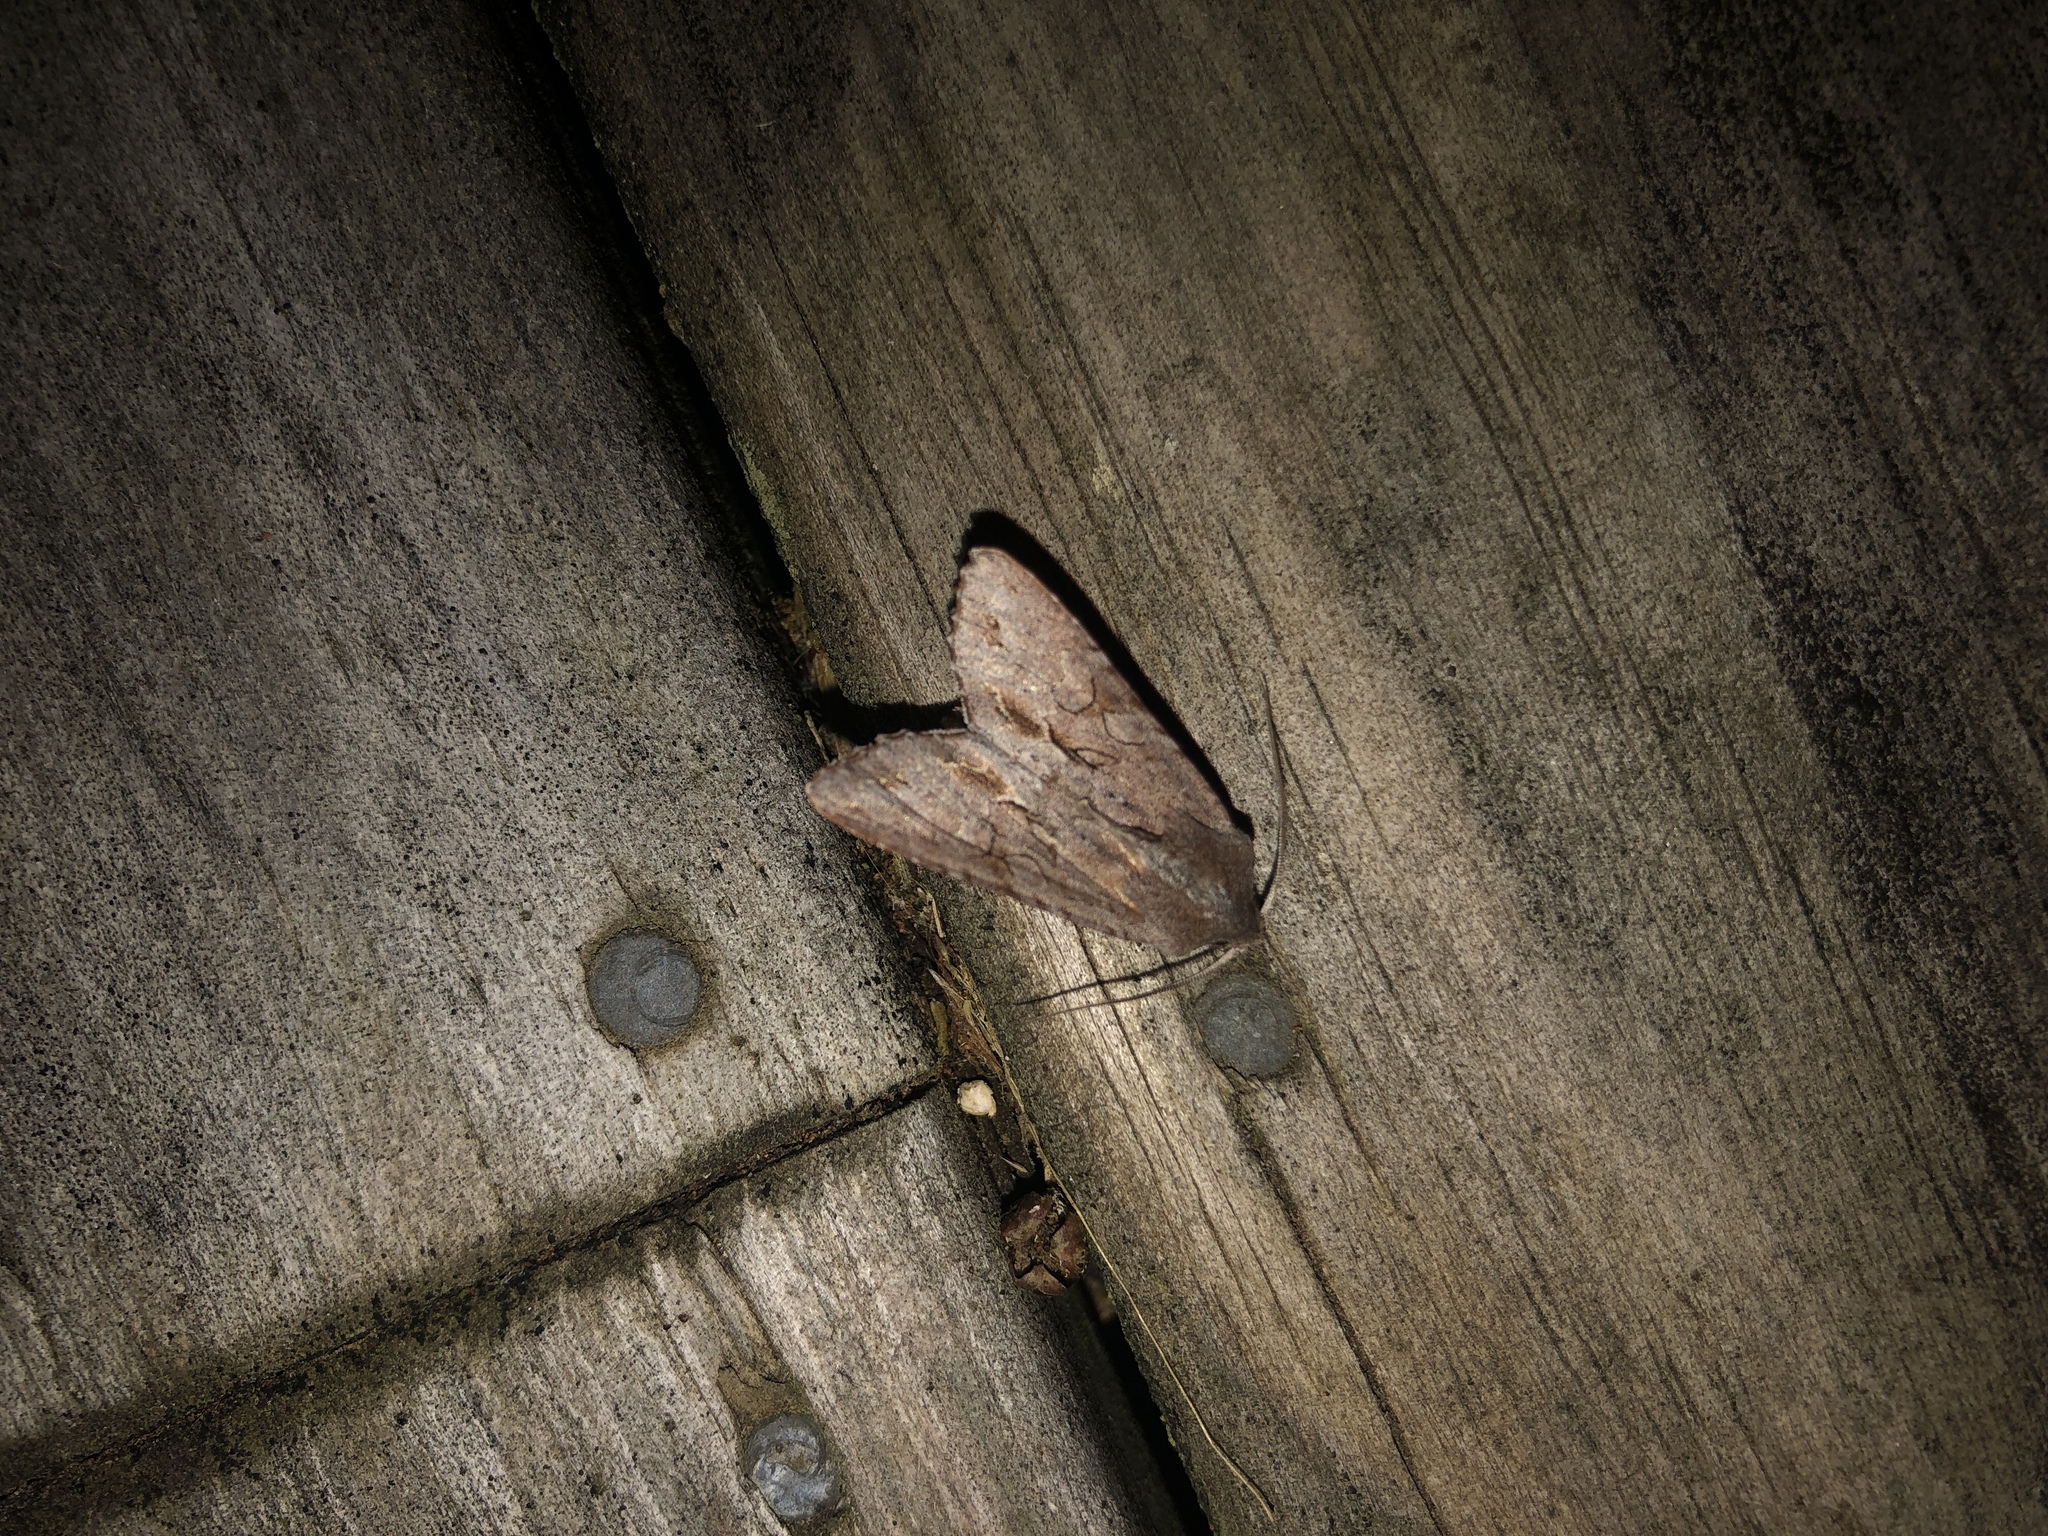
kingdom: Animalia
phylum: Arthropoda
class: Insecta
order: Lepidoptera
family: Noctuidae
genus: Ichneutica
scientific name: Ichneutica
